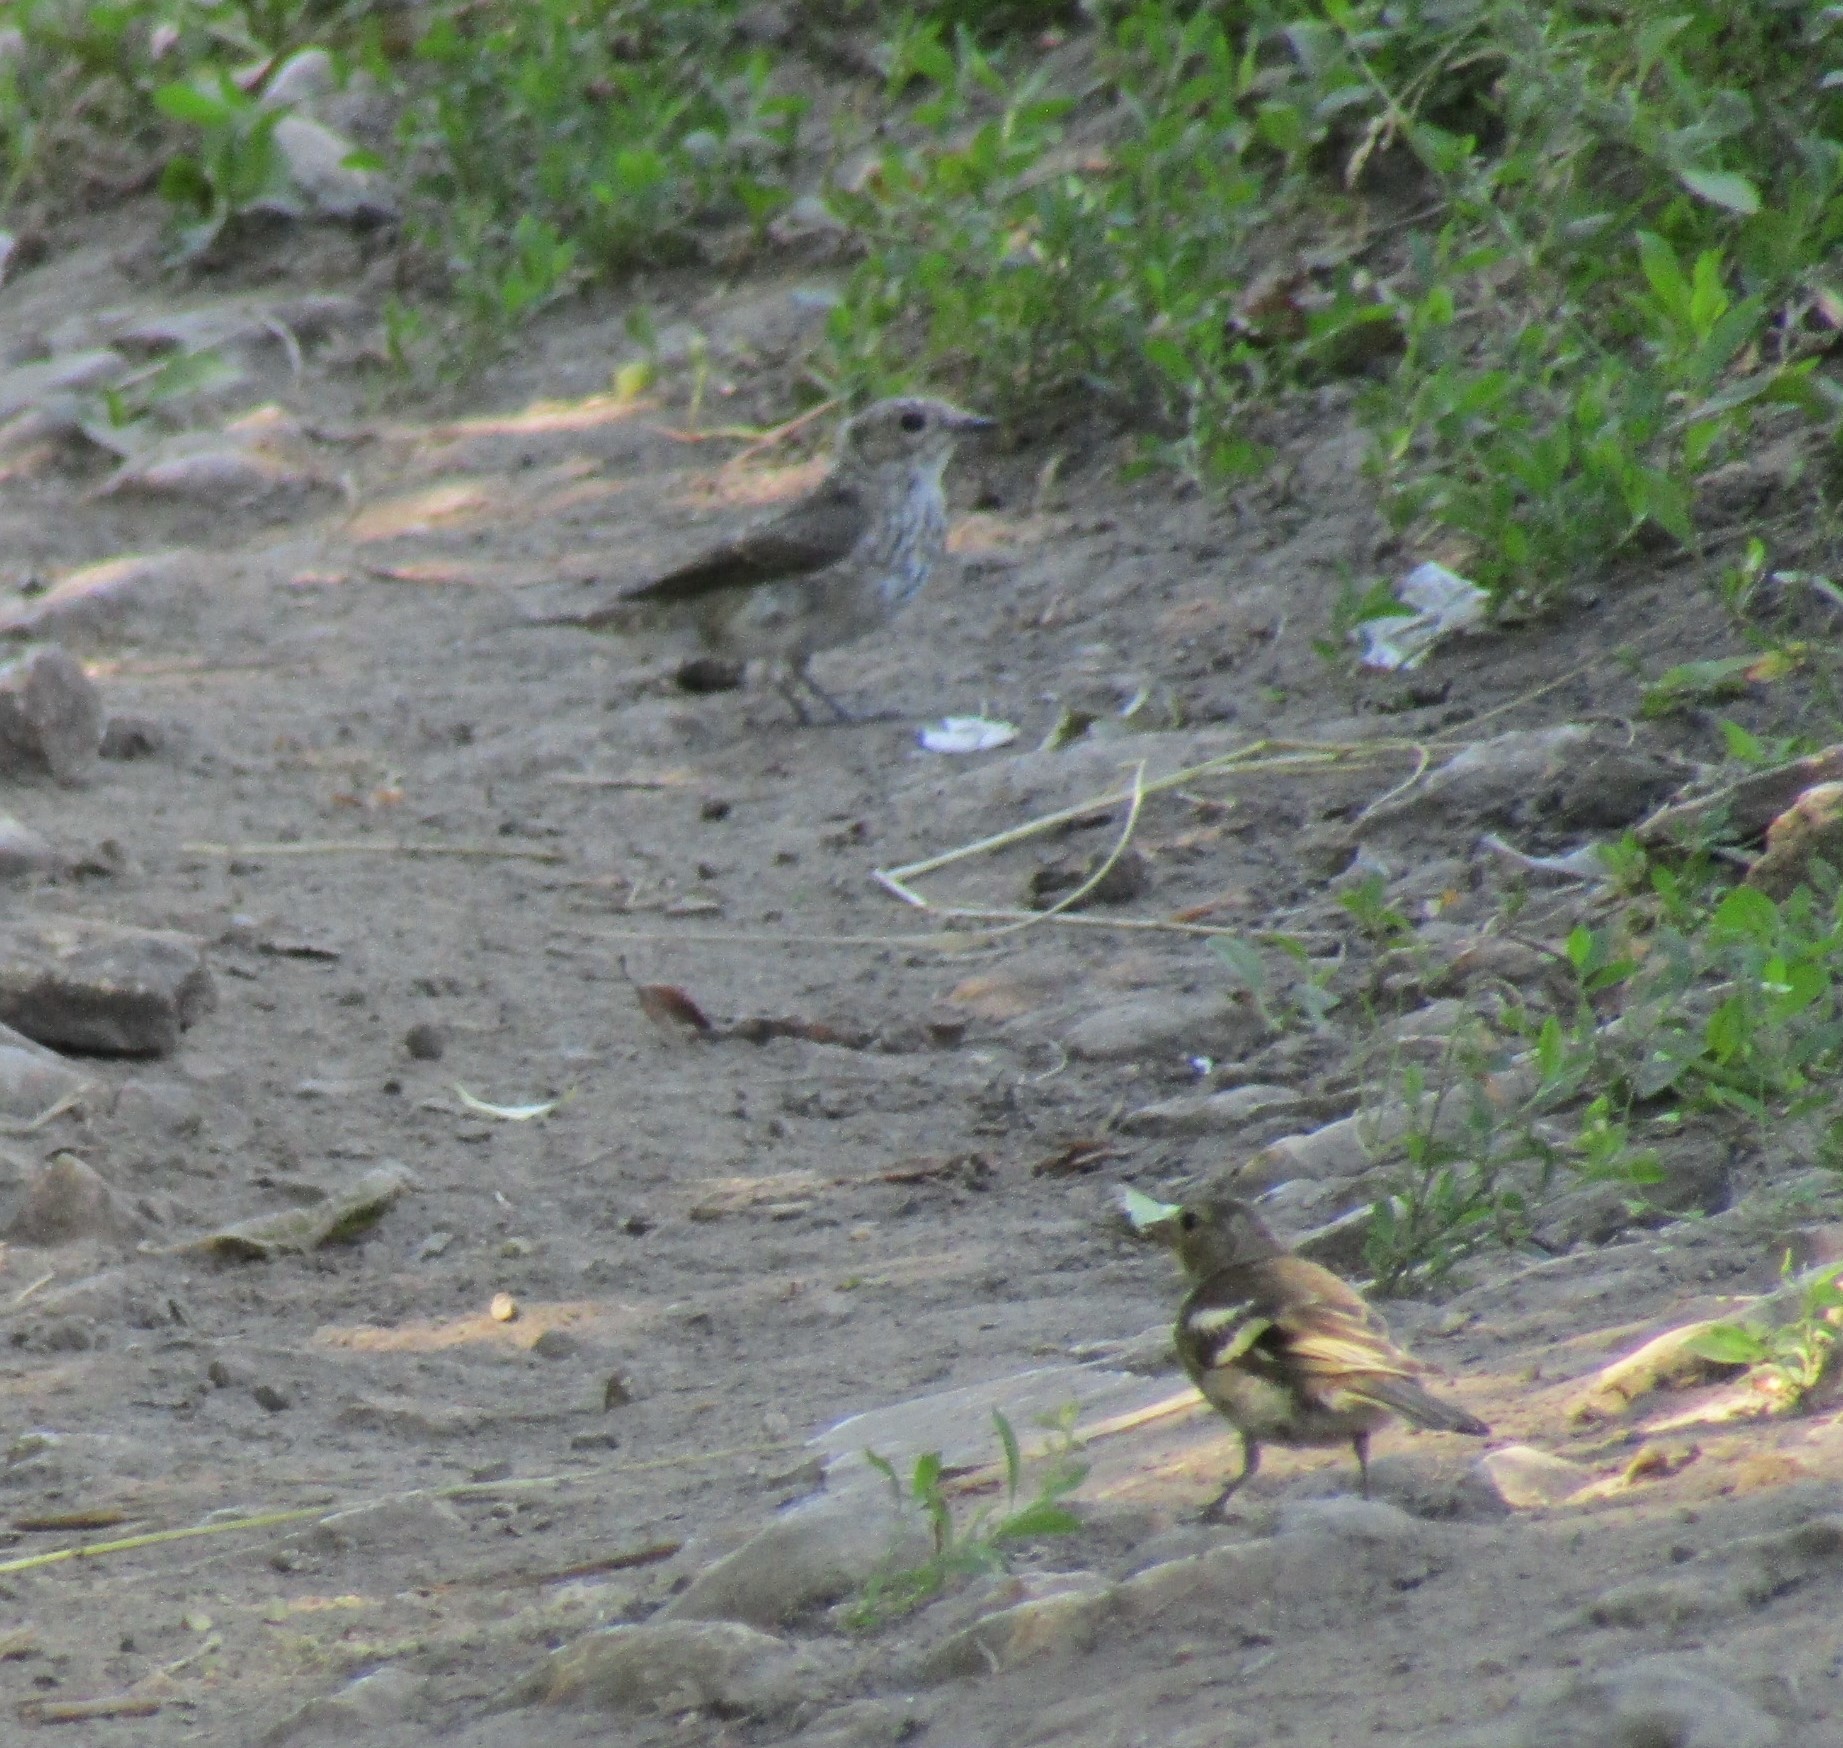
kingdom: Animalia
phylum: Chordata
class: Aves
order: Passeriformes
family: Fringillidae
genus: Fringilla
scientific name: Fringilla coelebs
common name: Common chaffinch
